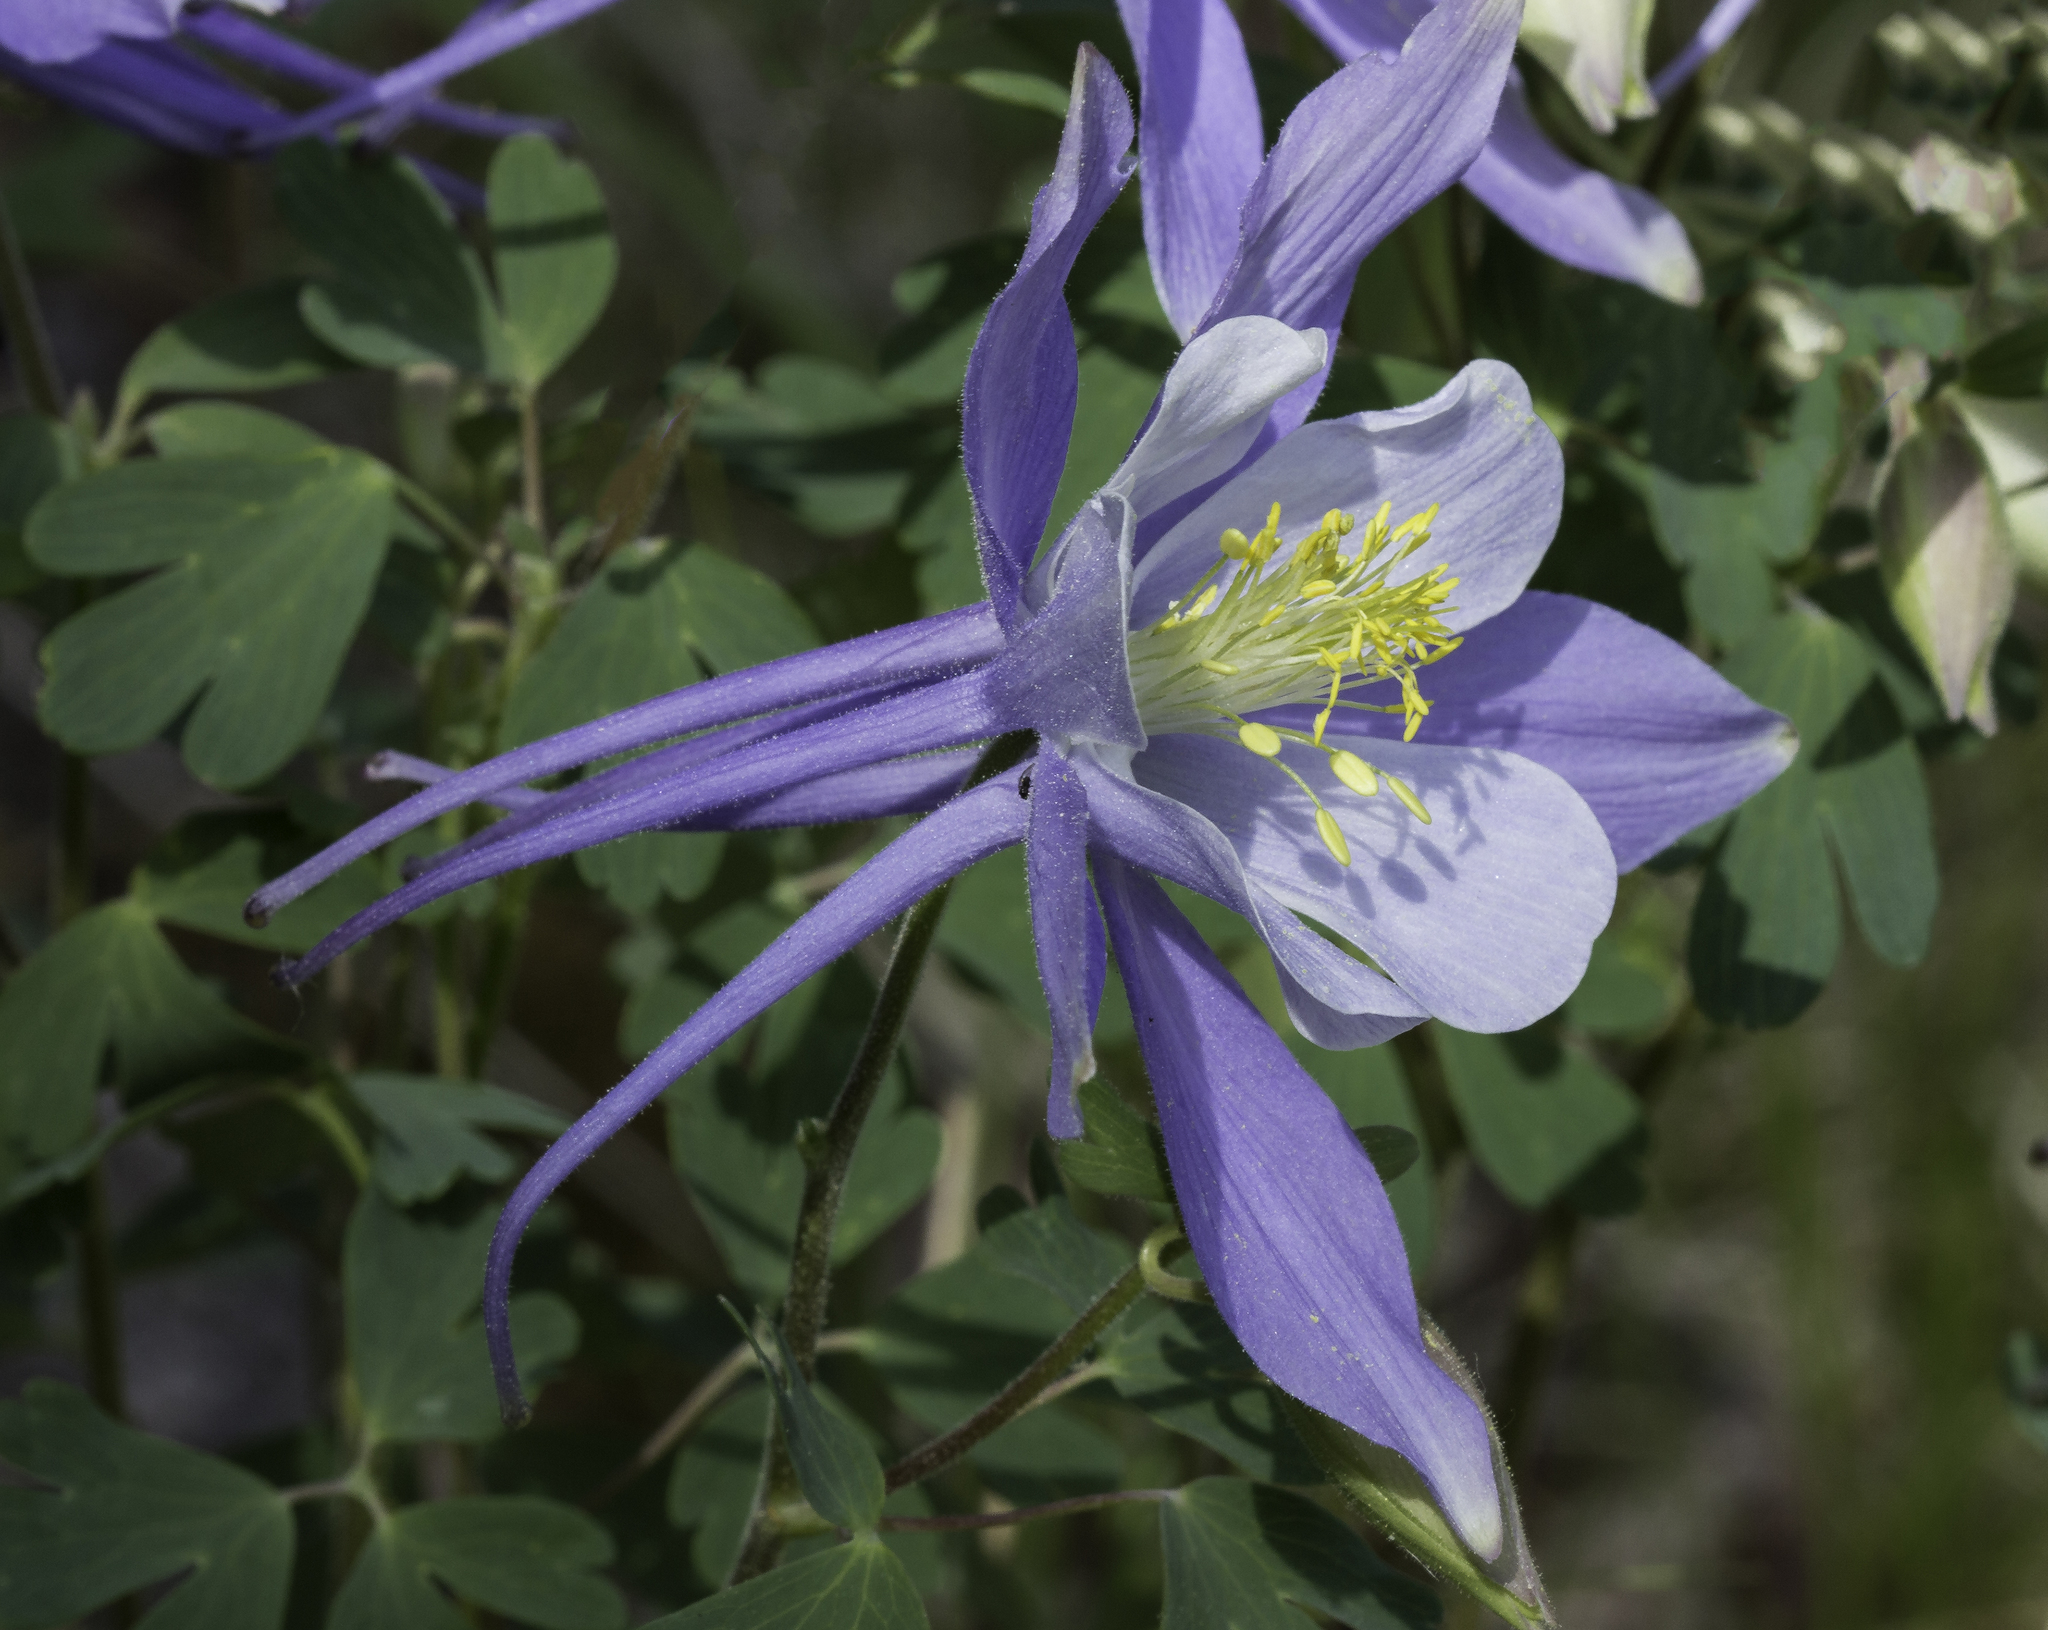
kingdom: Plantae
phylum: Tracheophyta
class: Magnoliopsida
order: Ranunculales
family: Ranunculaceae
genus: Aquilegia
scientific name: Aquilegia coerulea
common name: Rocky mountain columbine
